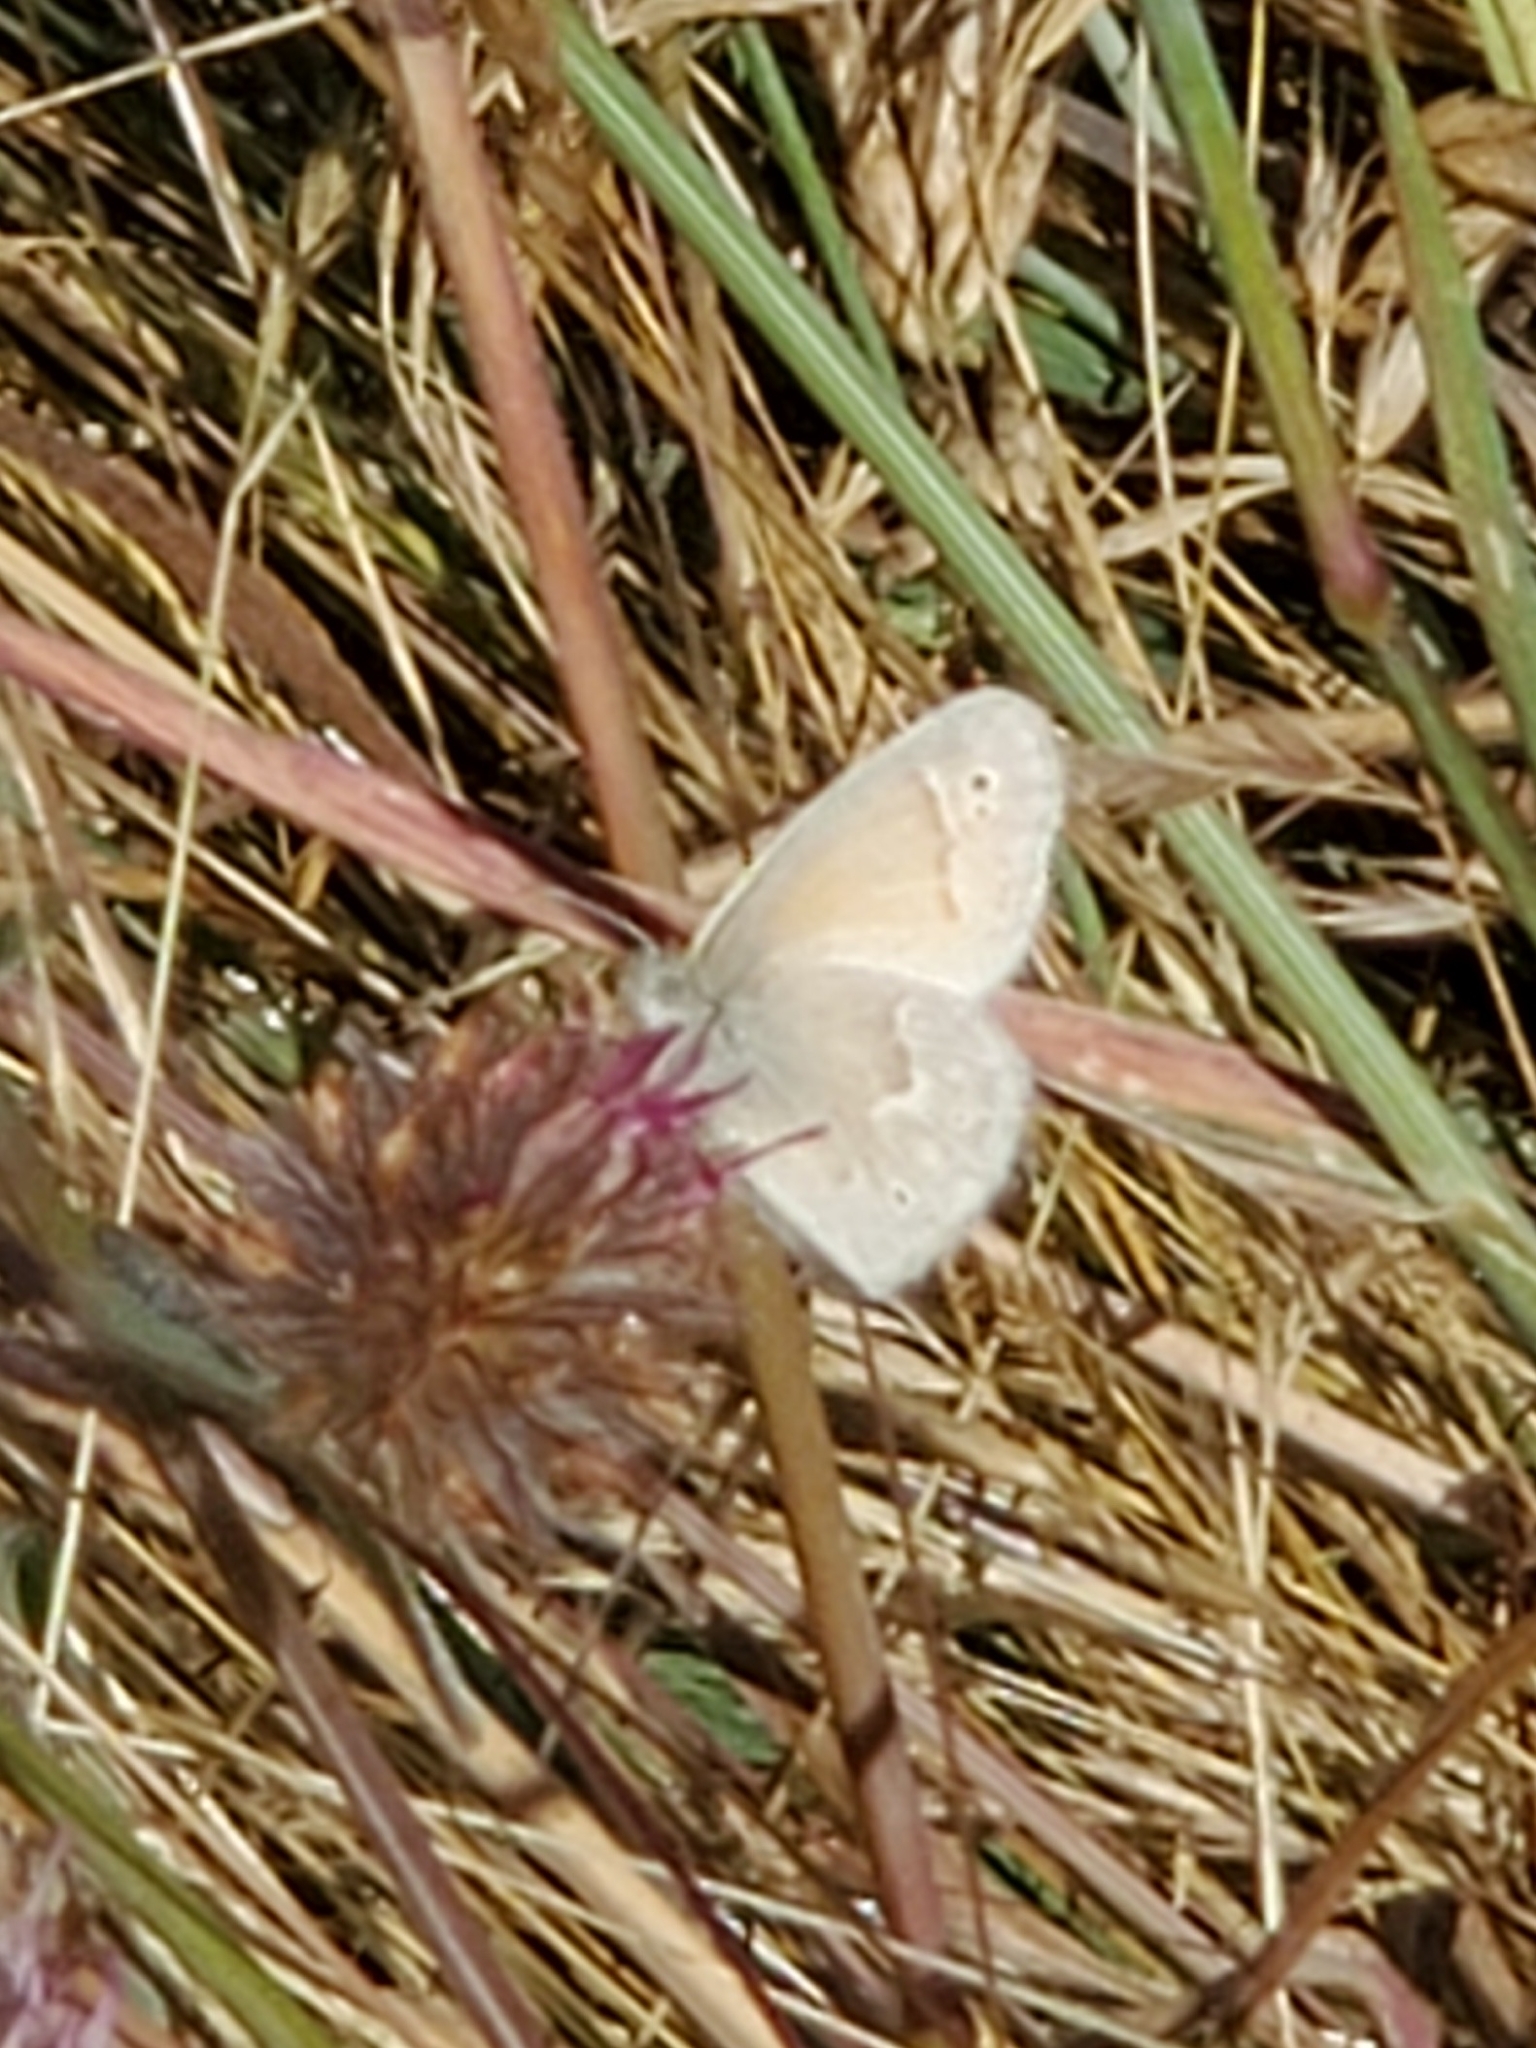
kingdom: Animalia
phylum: Arthropoda
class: Insecta
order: Lepidoptera
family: Nymphalidae
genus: Coenonympha
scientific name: Coenonympha california
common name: Common ringlet
